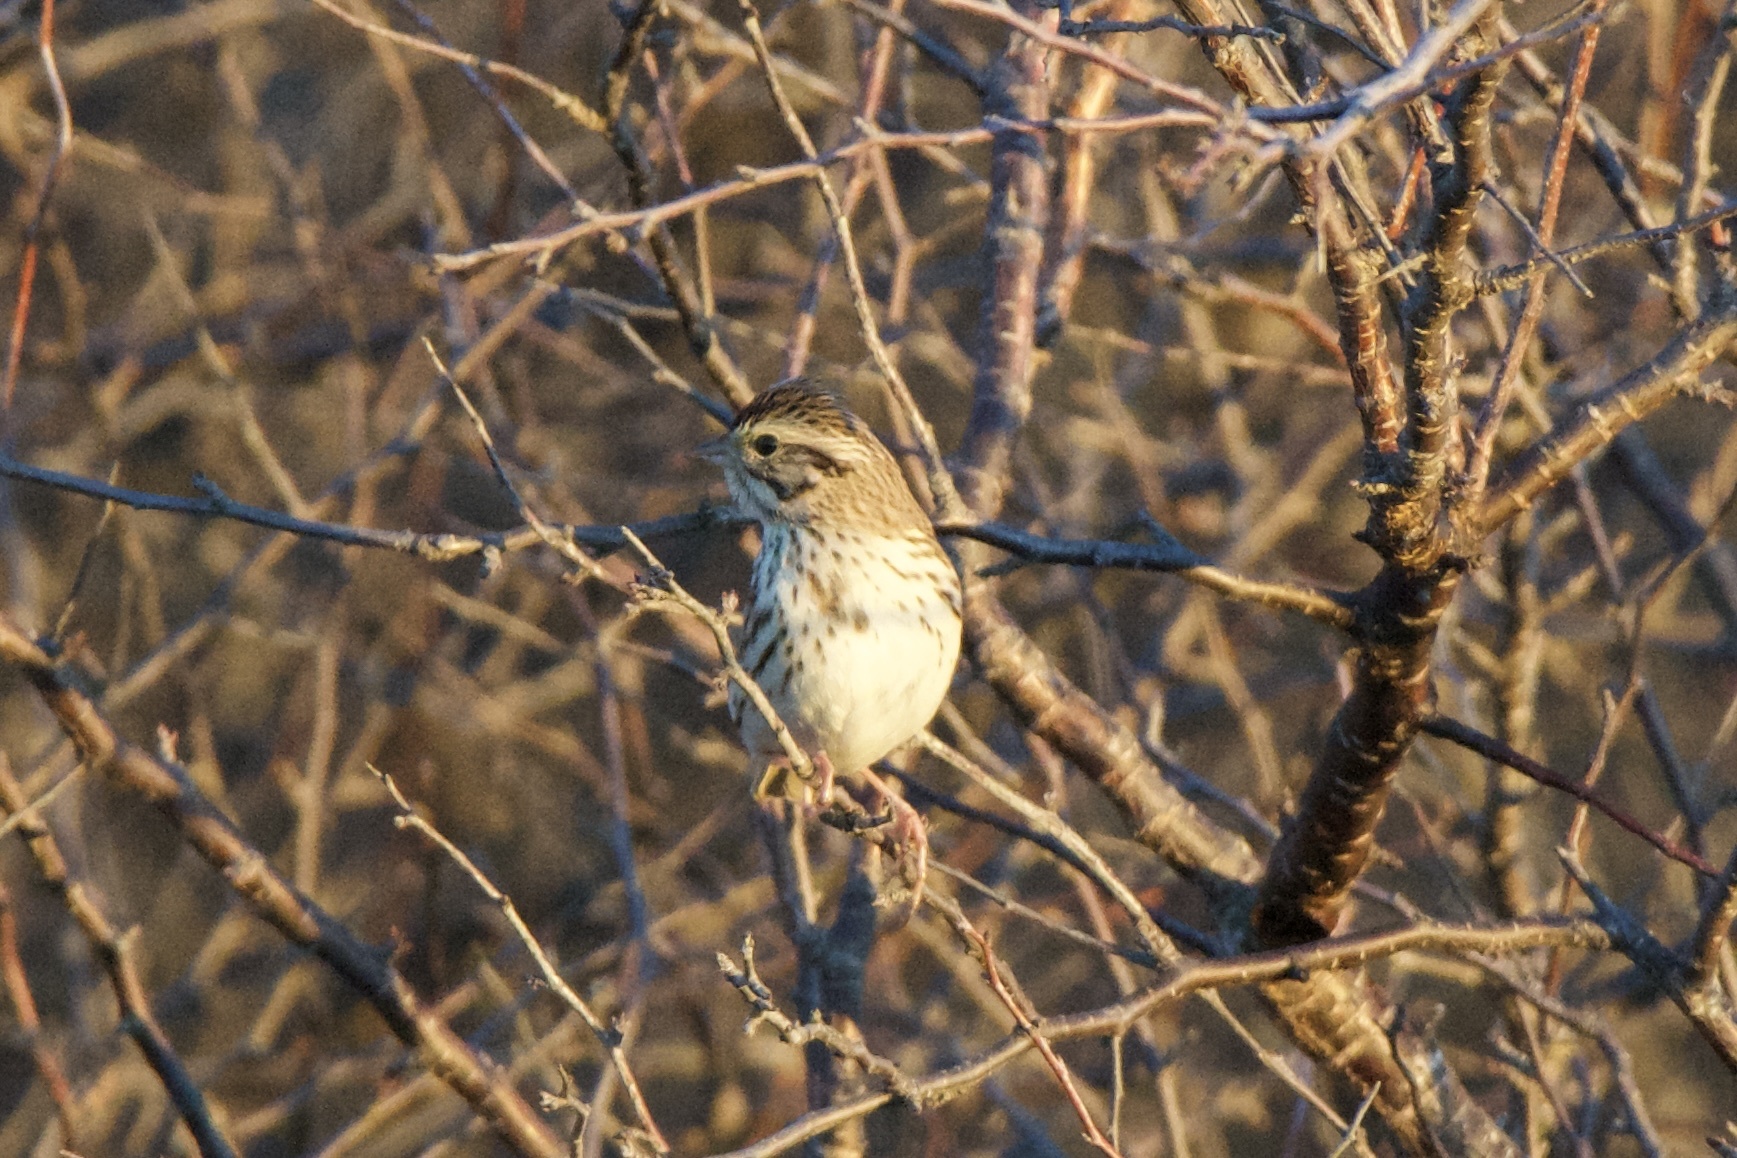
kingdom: Animalia
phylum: Chordata
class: Aves
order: Passeriformes
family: Passerellidae
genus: Passerculus
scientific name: Passerculus sandwichensis
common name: Savannah sparrow
